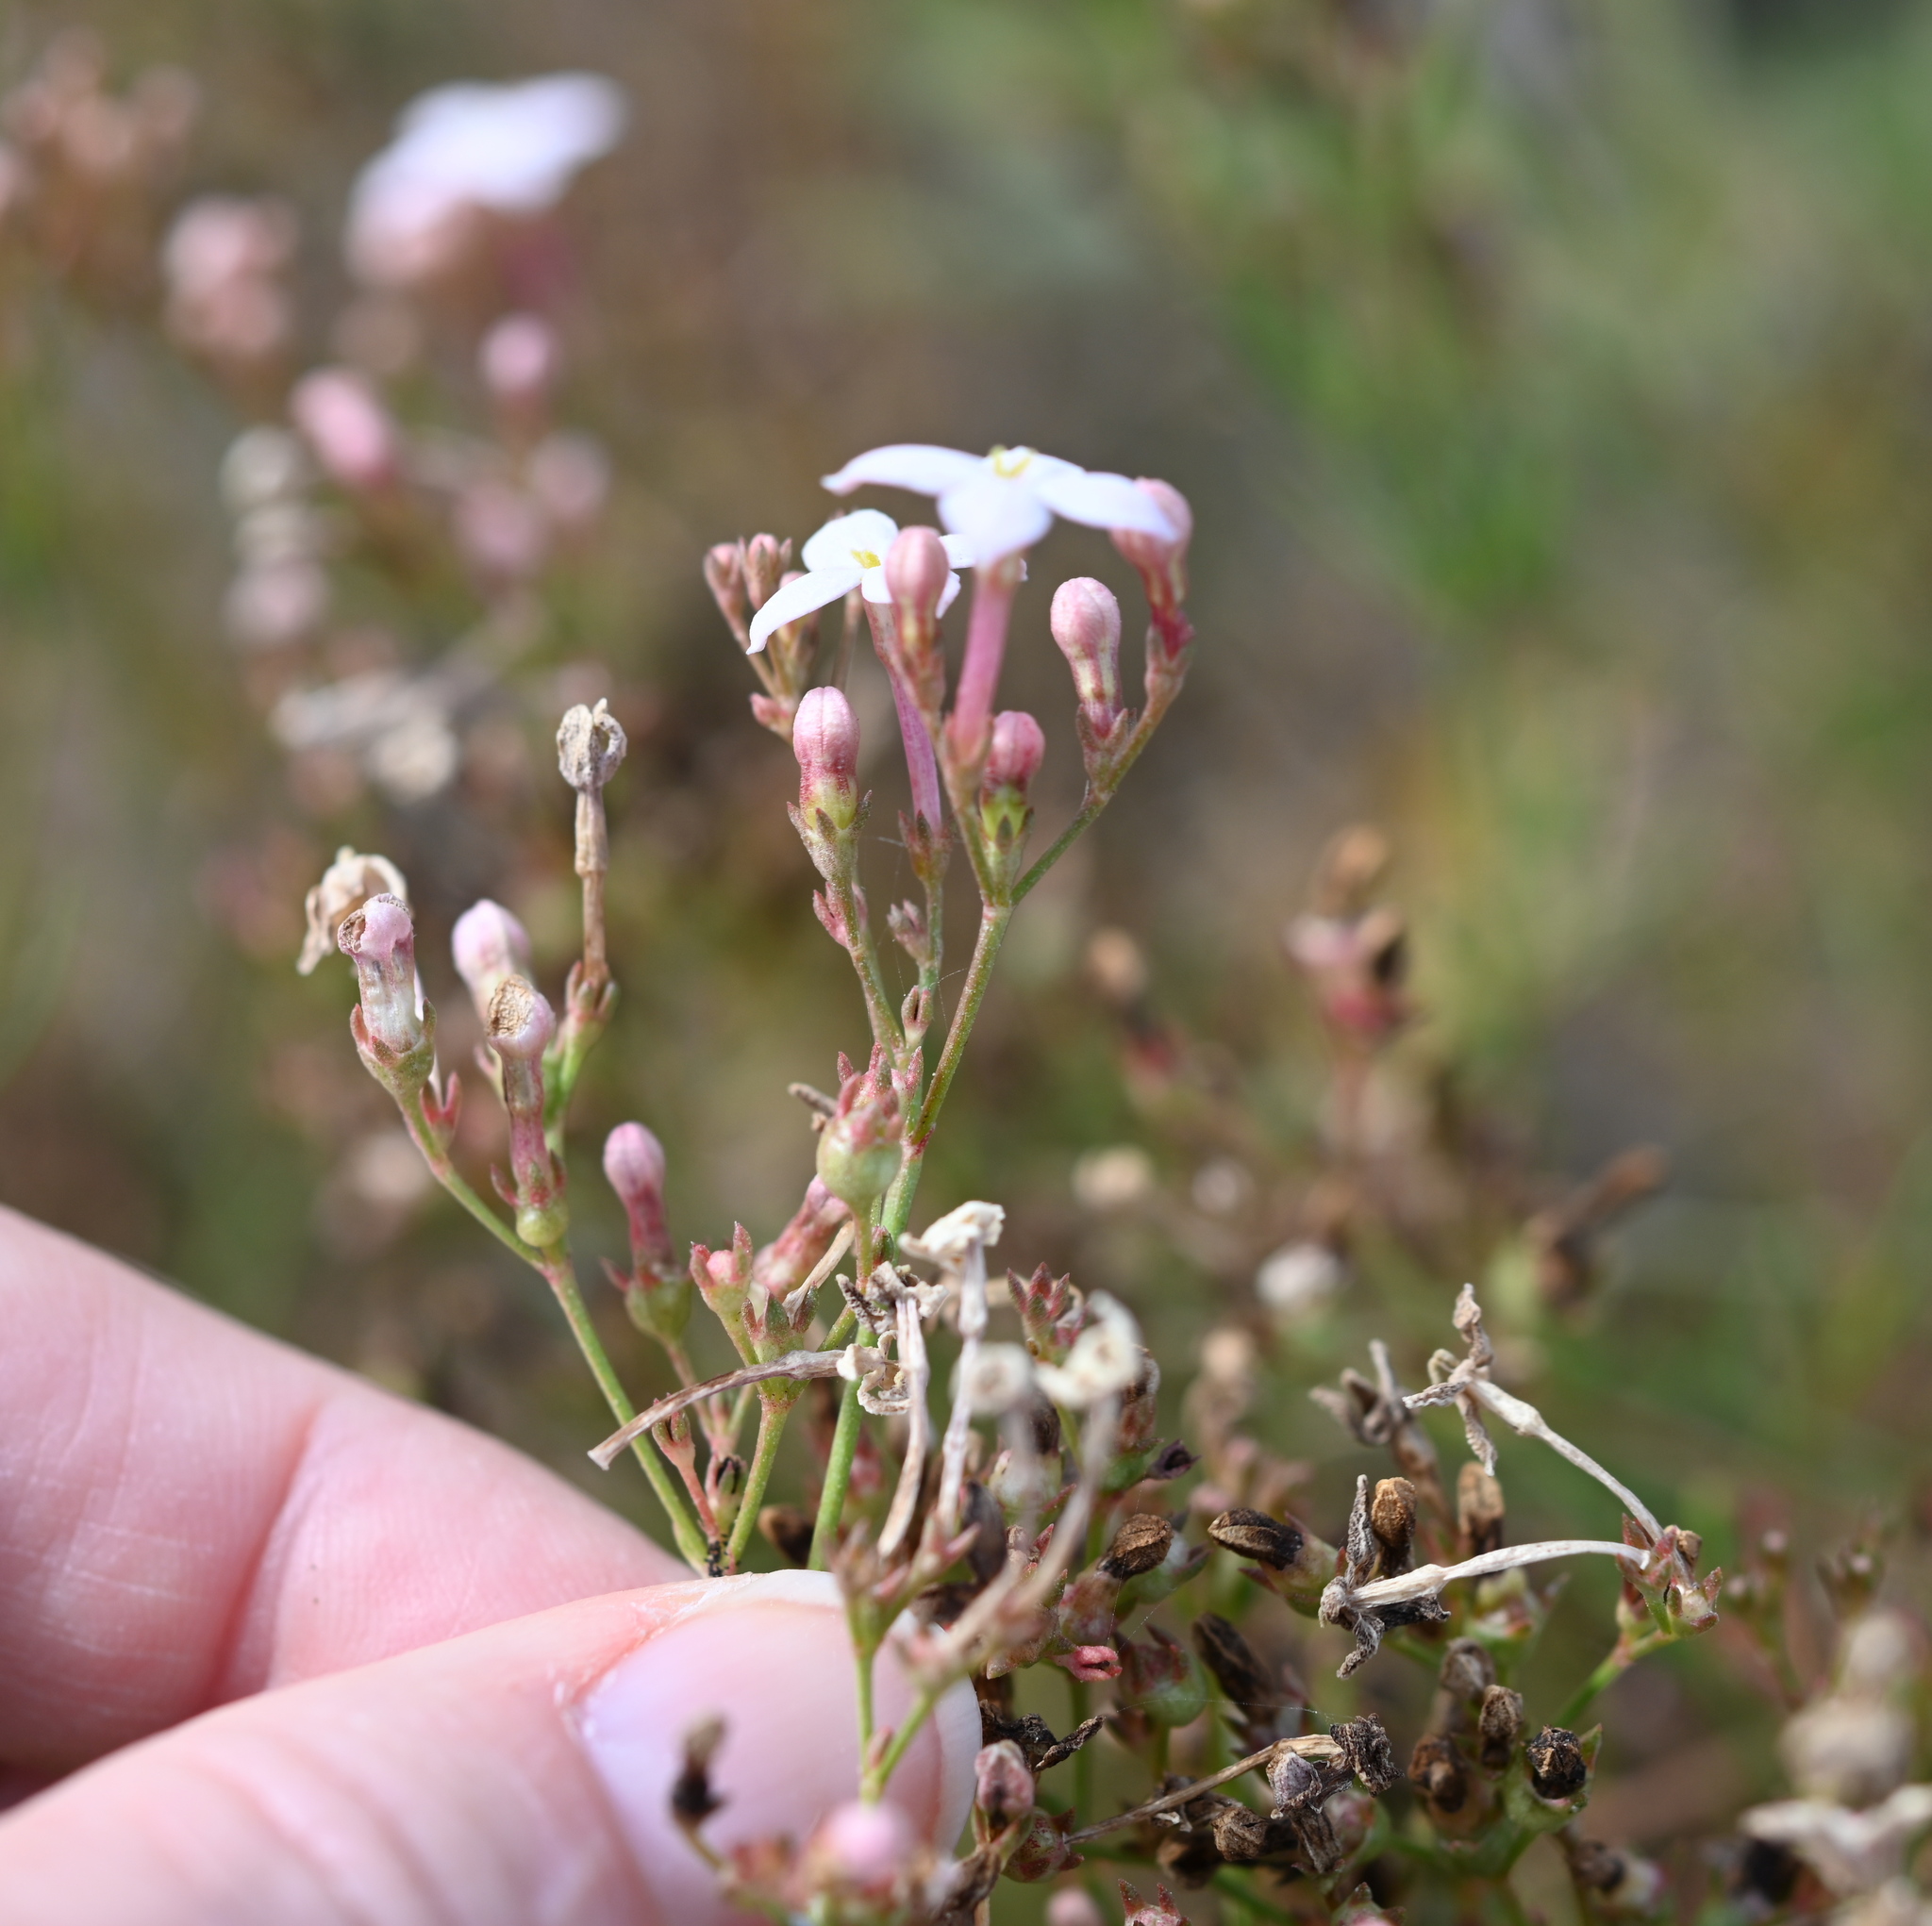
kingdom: Plantae
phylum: Tracheophyta
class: Magnoliopsida
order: Gentianales
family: Rubiaceae
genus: Stenotis
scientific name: Stenotis brevipes
